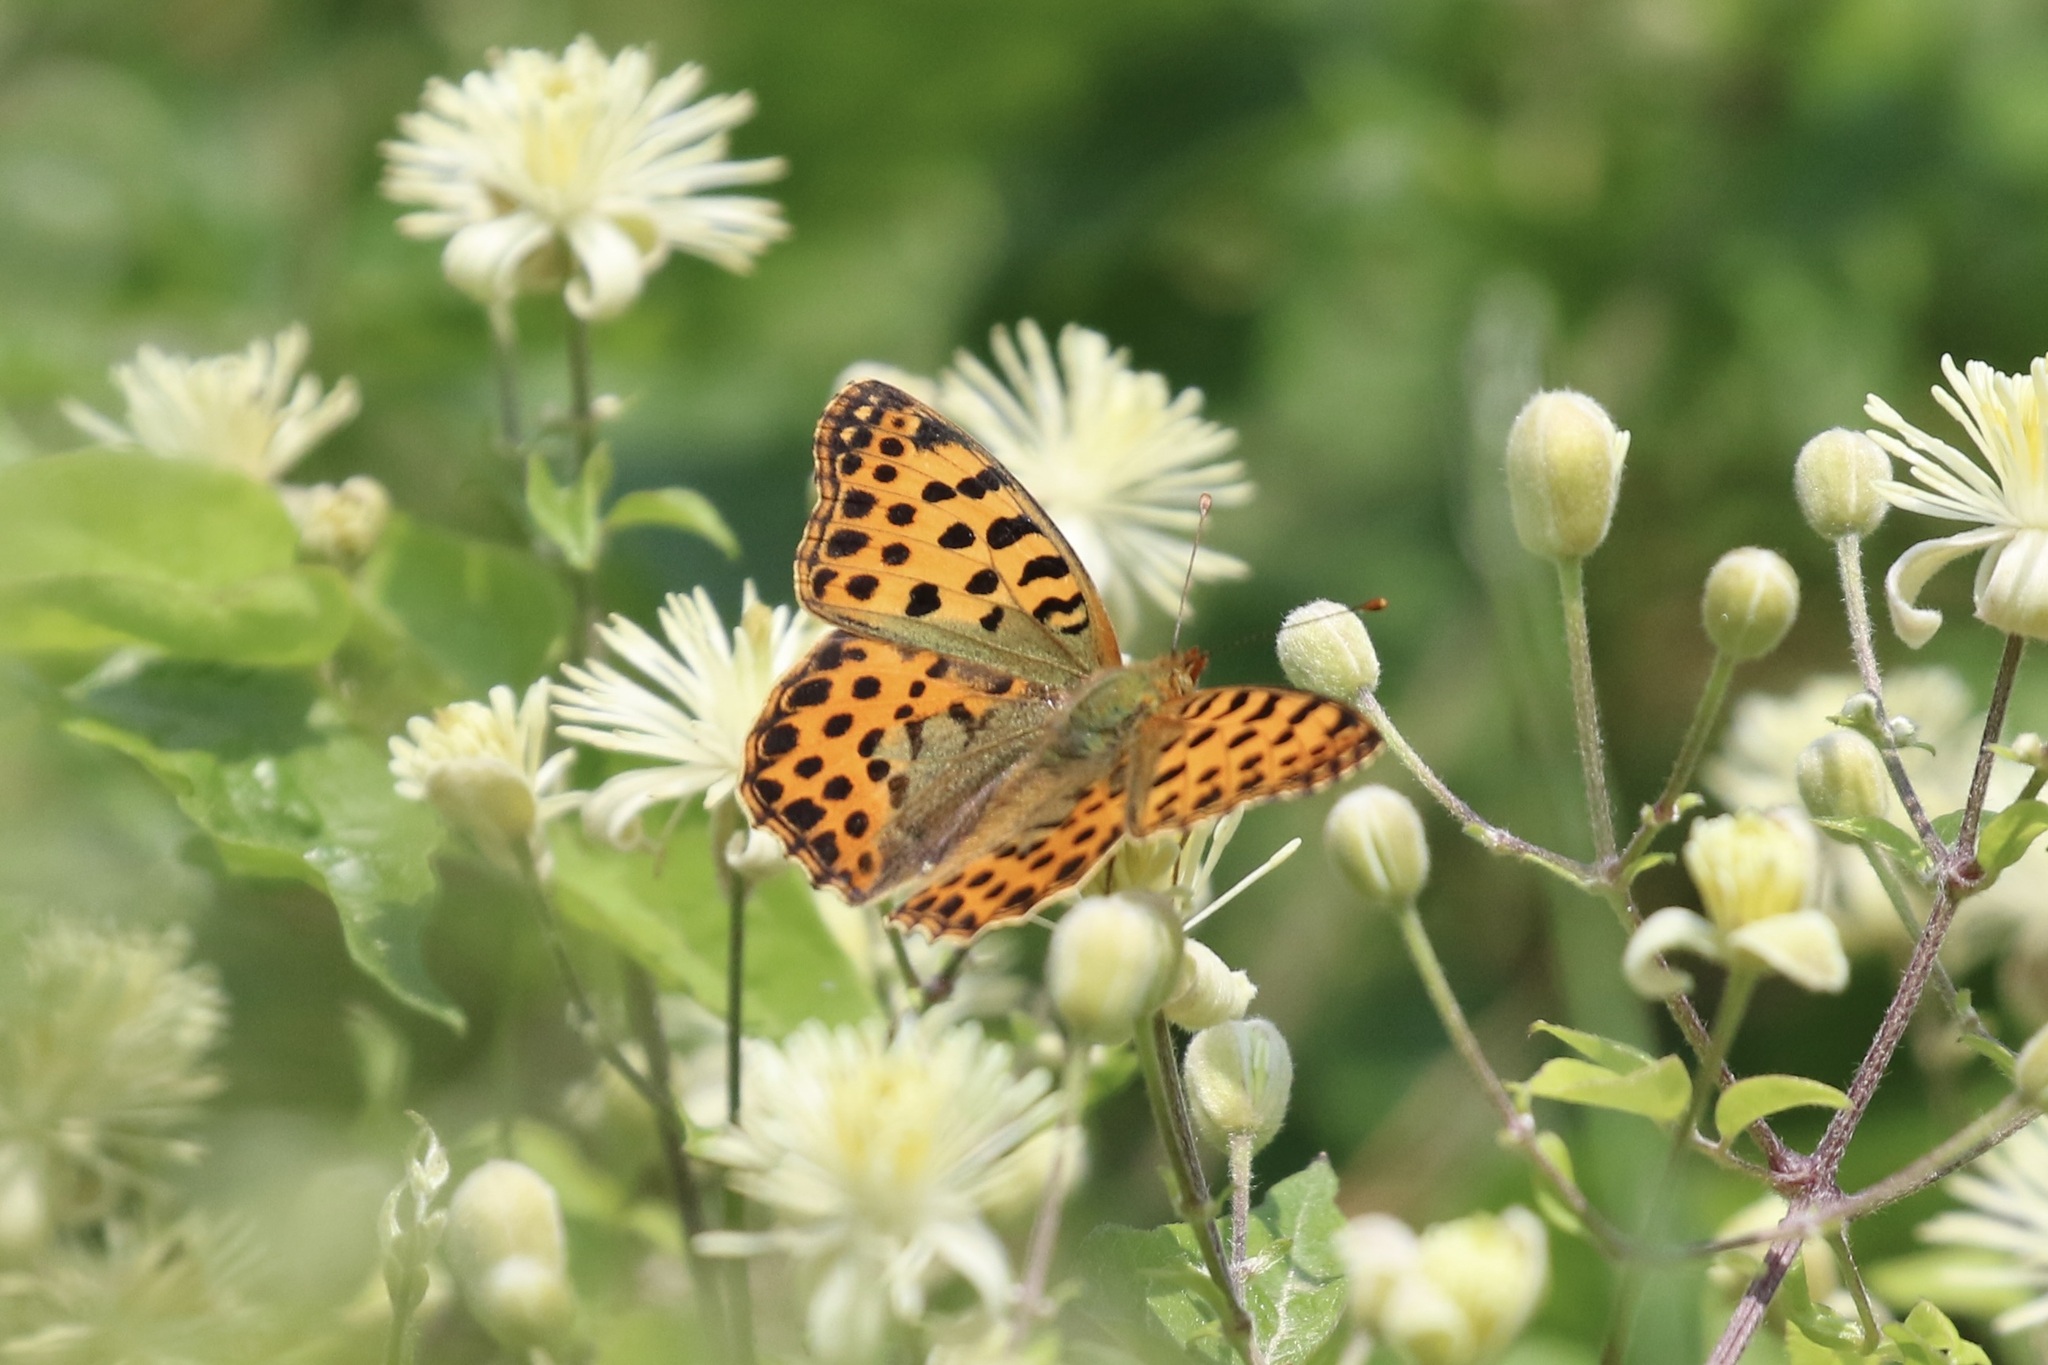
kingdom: Animalia
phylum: Arthropoda
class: Insecta
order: Lepidoptera
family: Nymphalidae
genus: Issoria
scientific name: Issoria lathonia
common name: Queen of spain fritillary
